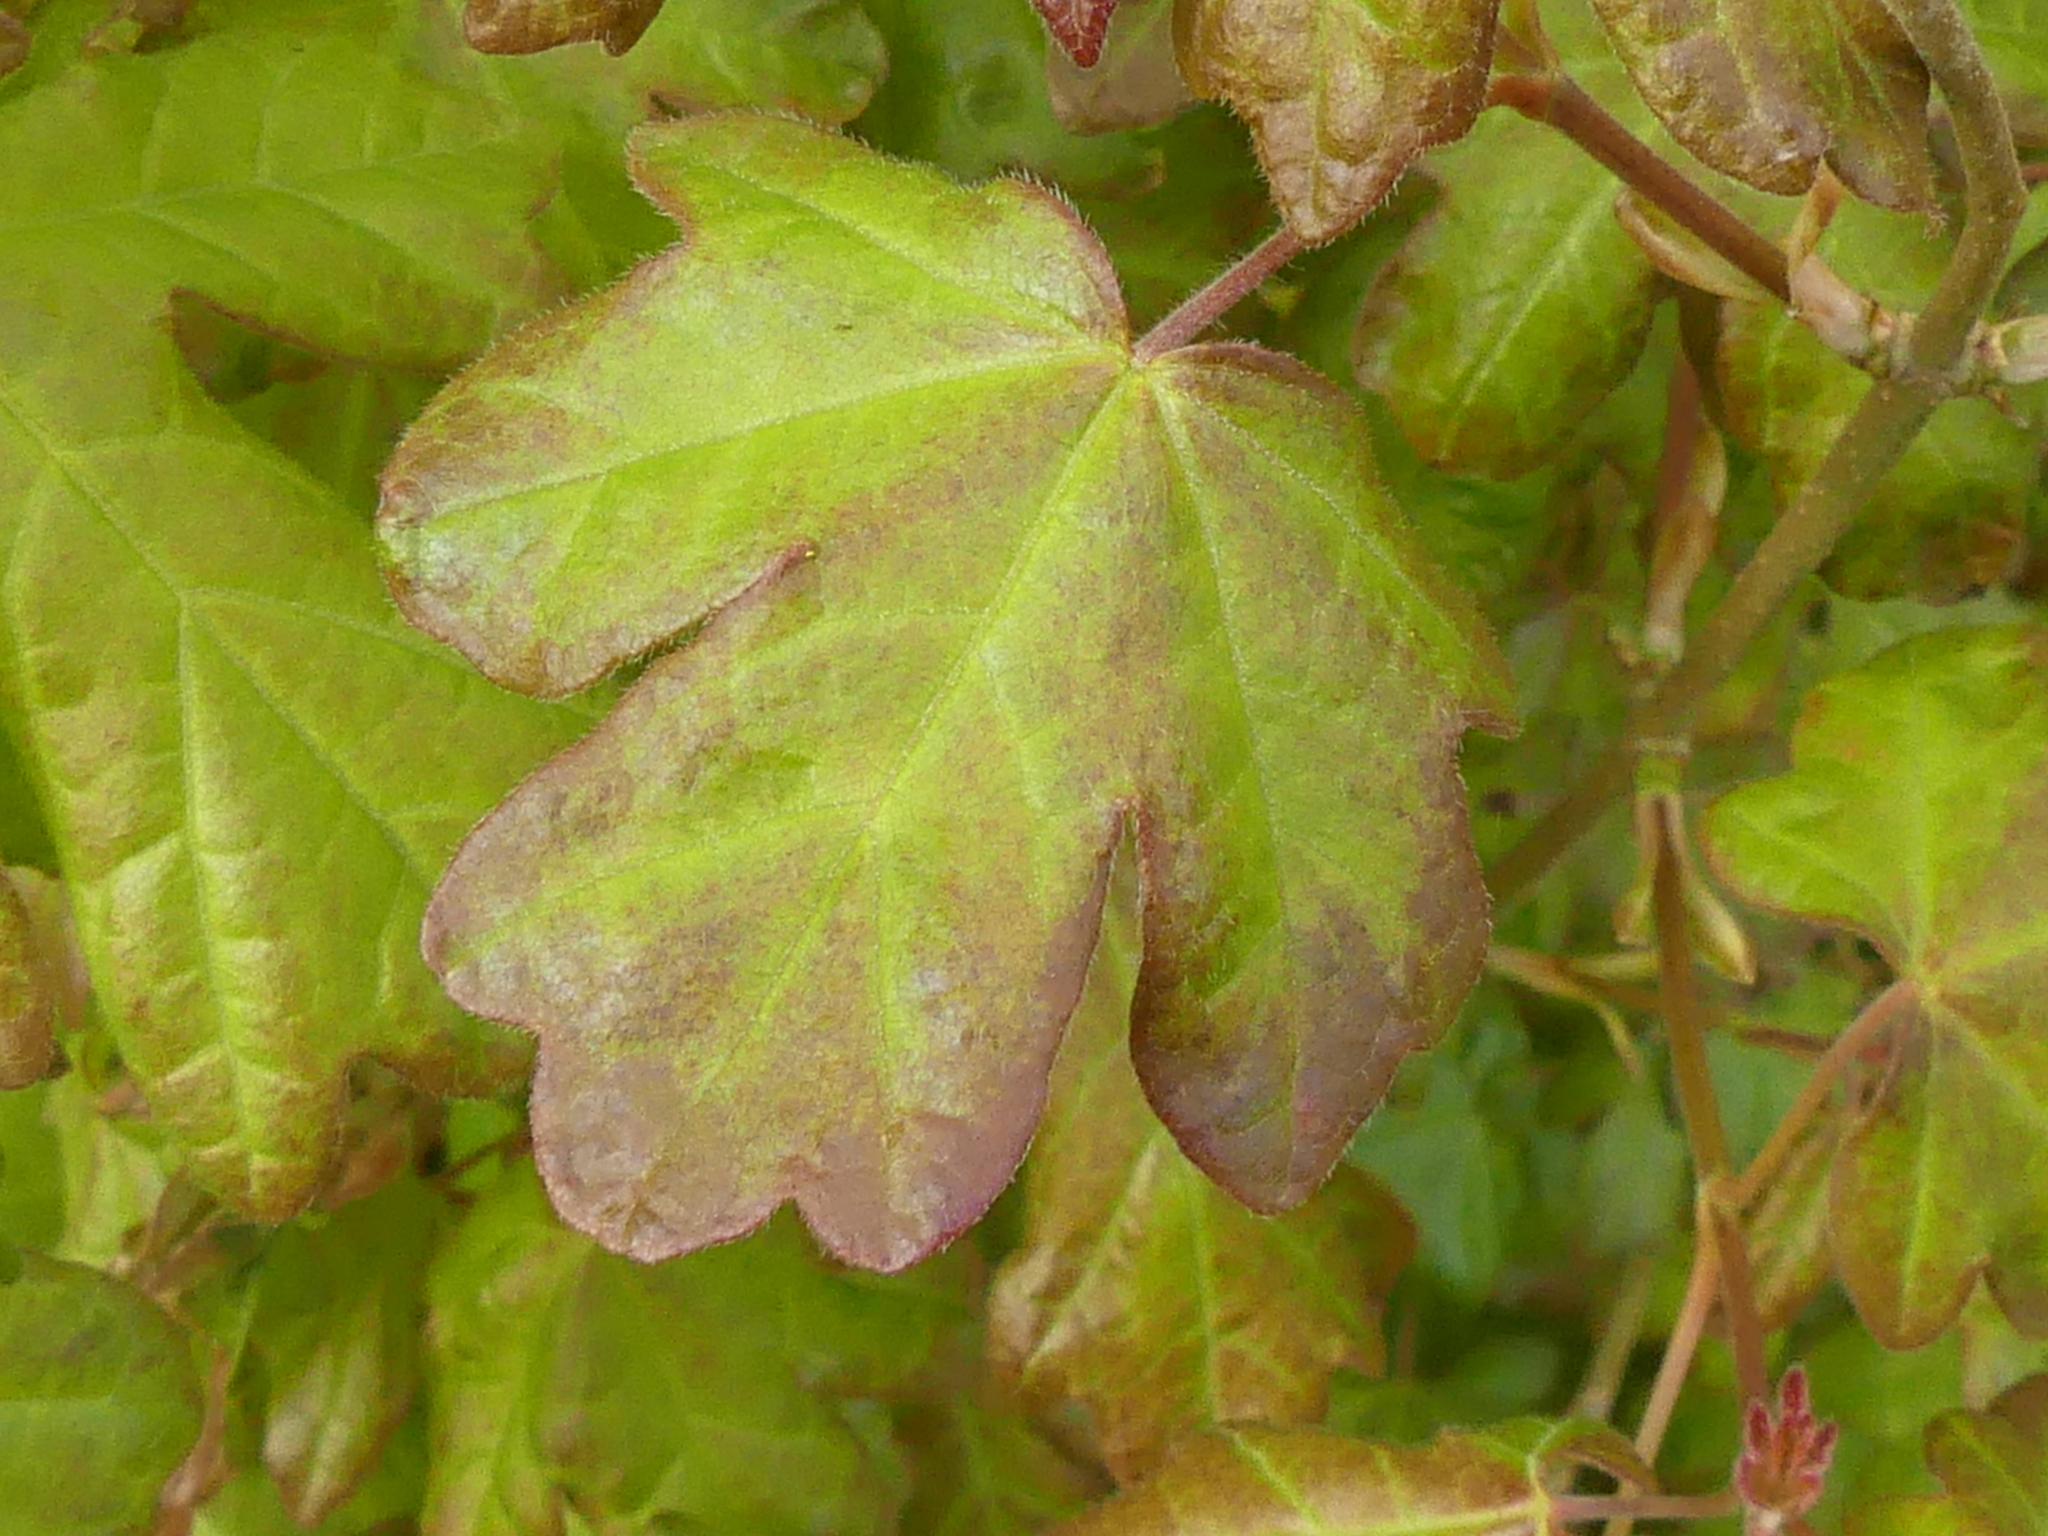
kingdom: Plantae
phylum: Tracheophyta
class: Magnoliopsida
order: Sapindales
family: Sapindaceae
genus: Acer
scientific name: Acer campestre
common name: Field maple
